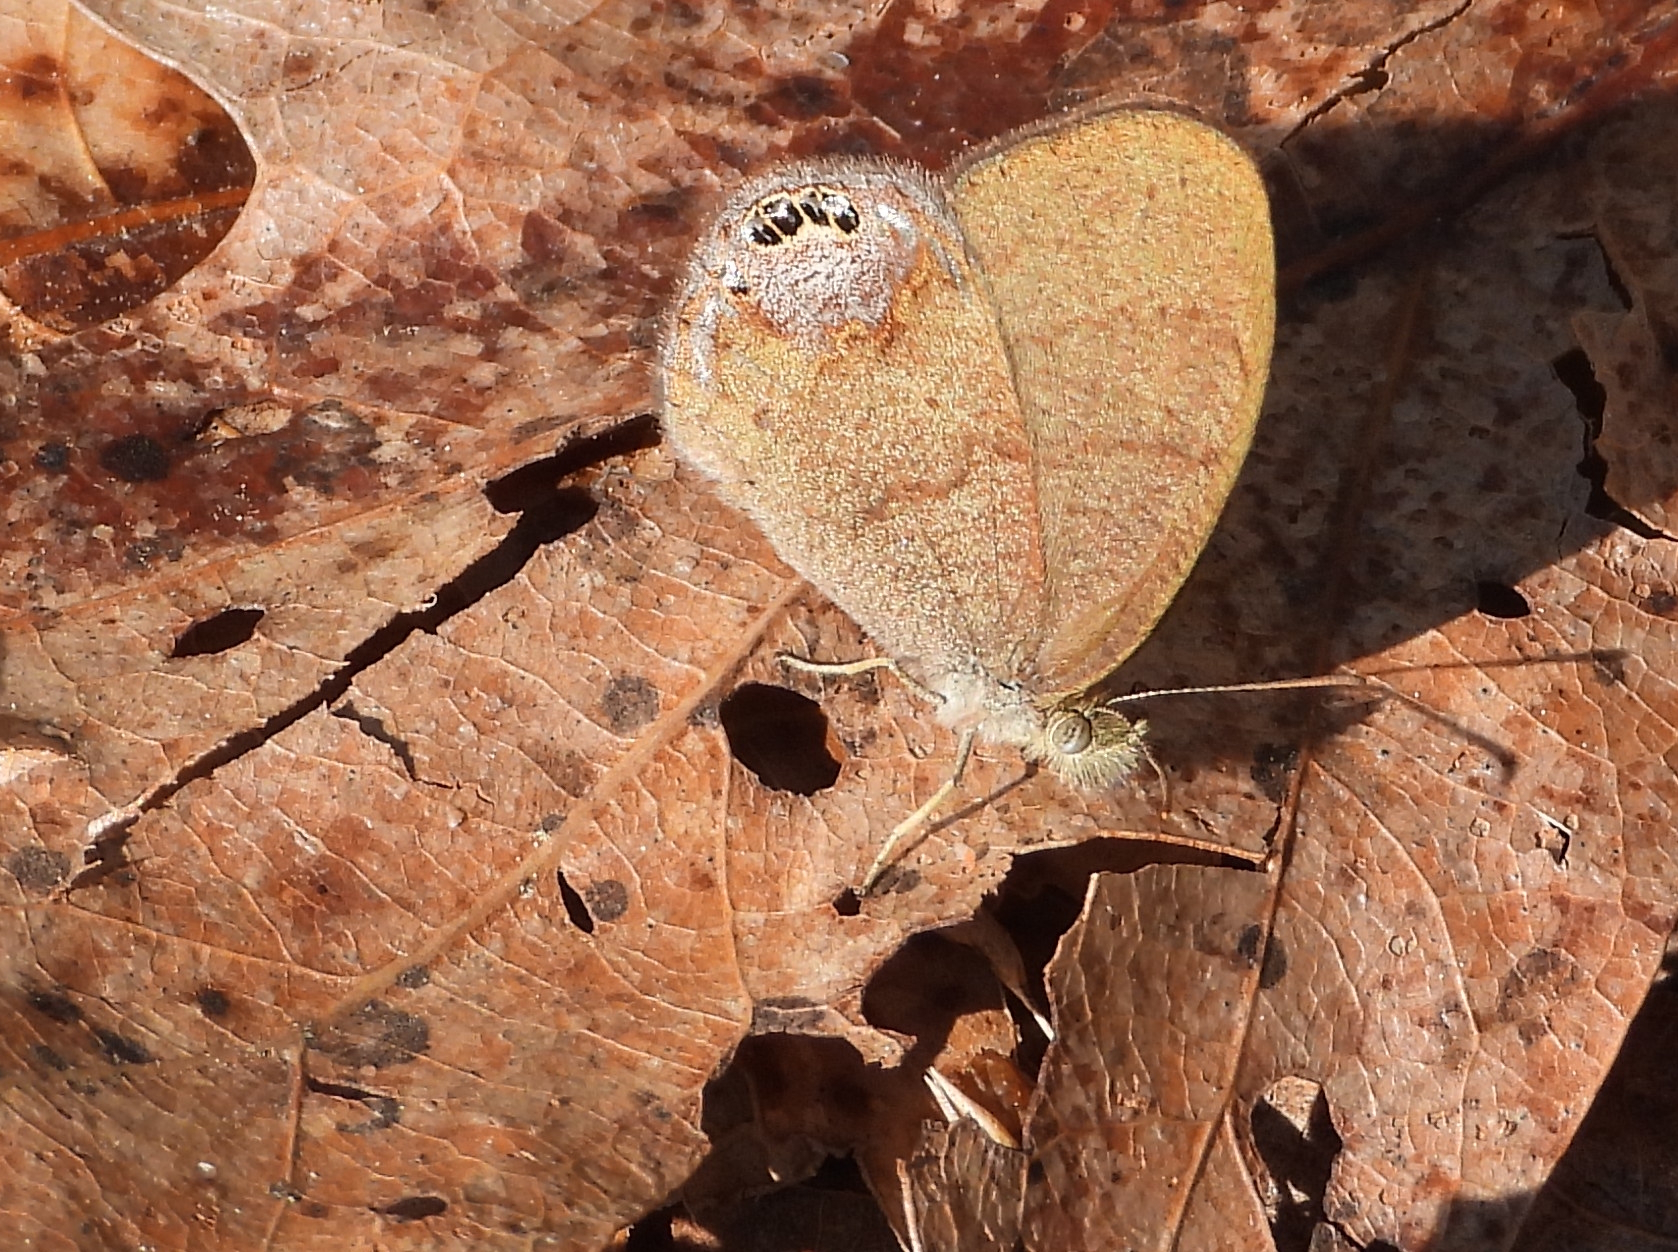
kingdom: Animalia
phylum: Arthropoda
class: Insecta
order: Lepidoptera
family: Nymphalidae
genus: Euptychia
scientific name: Euptychia cornelius
